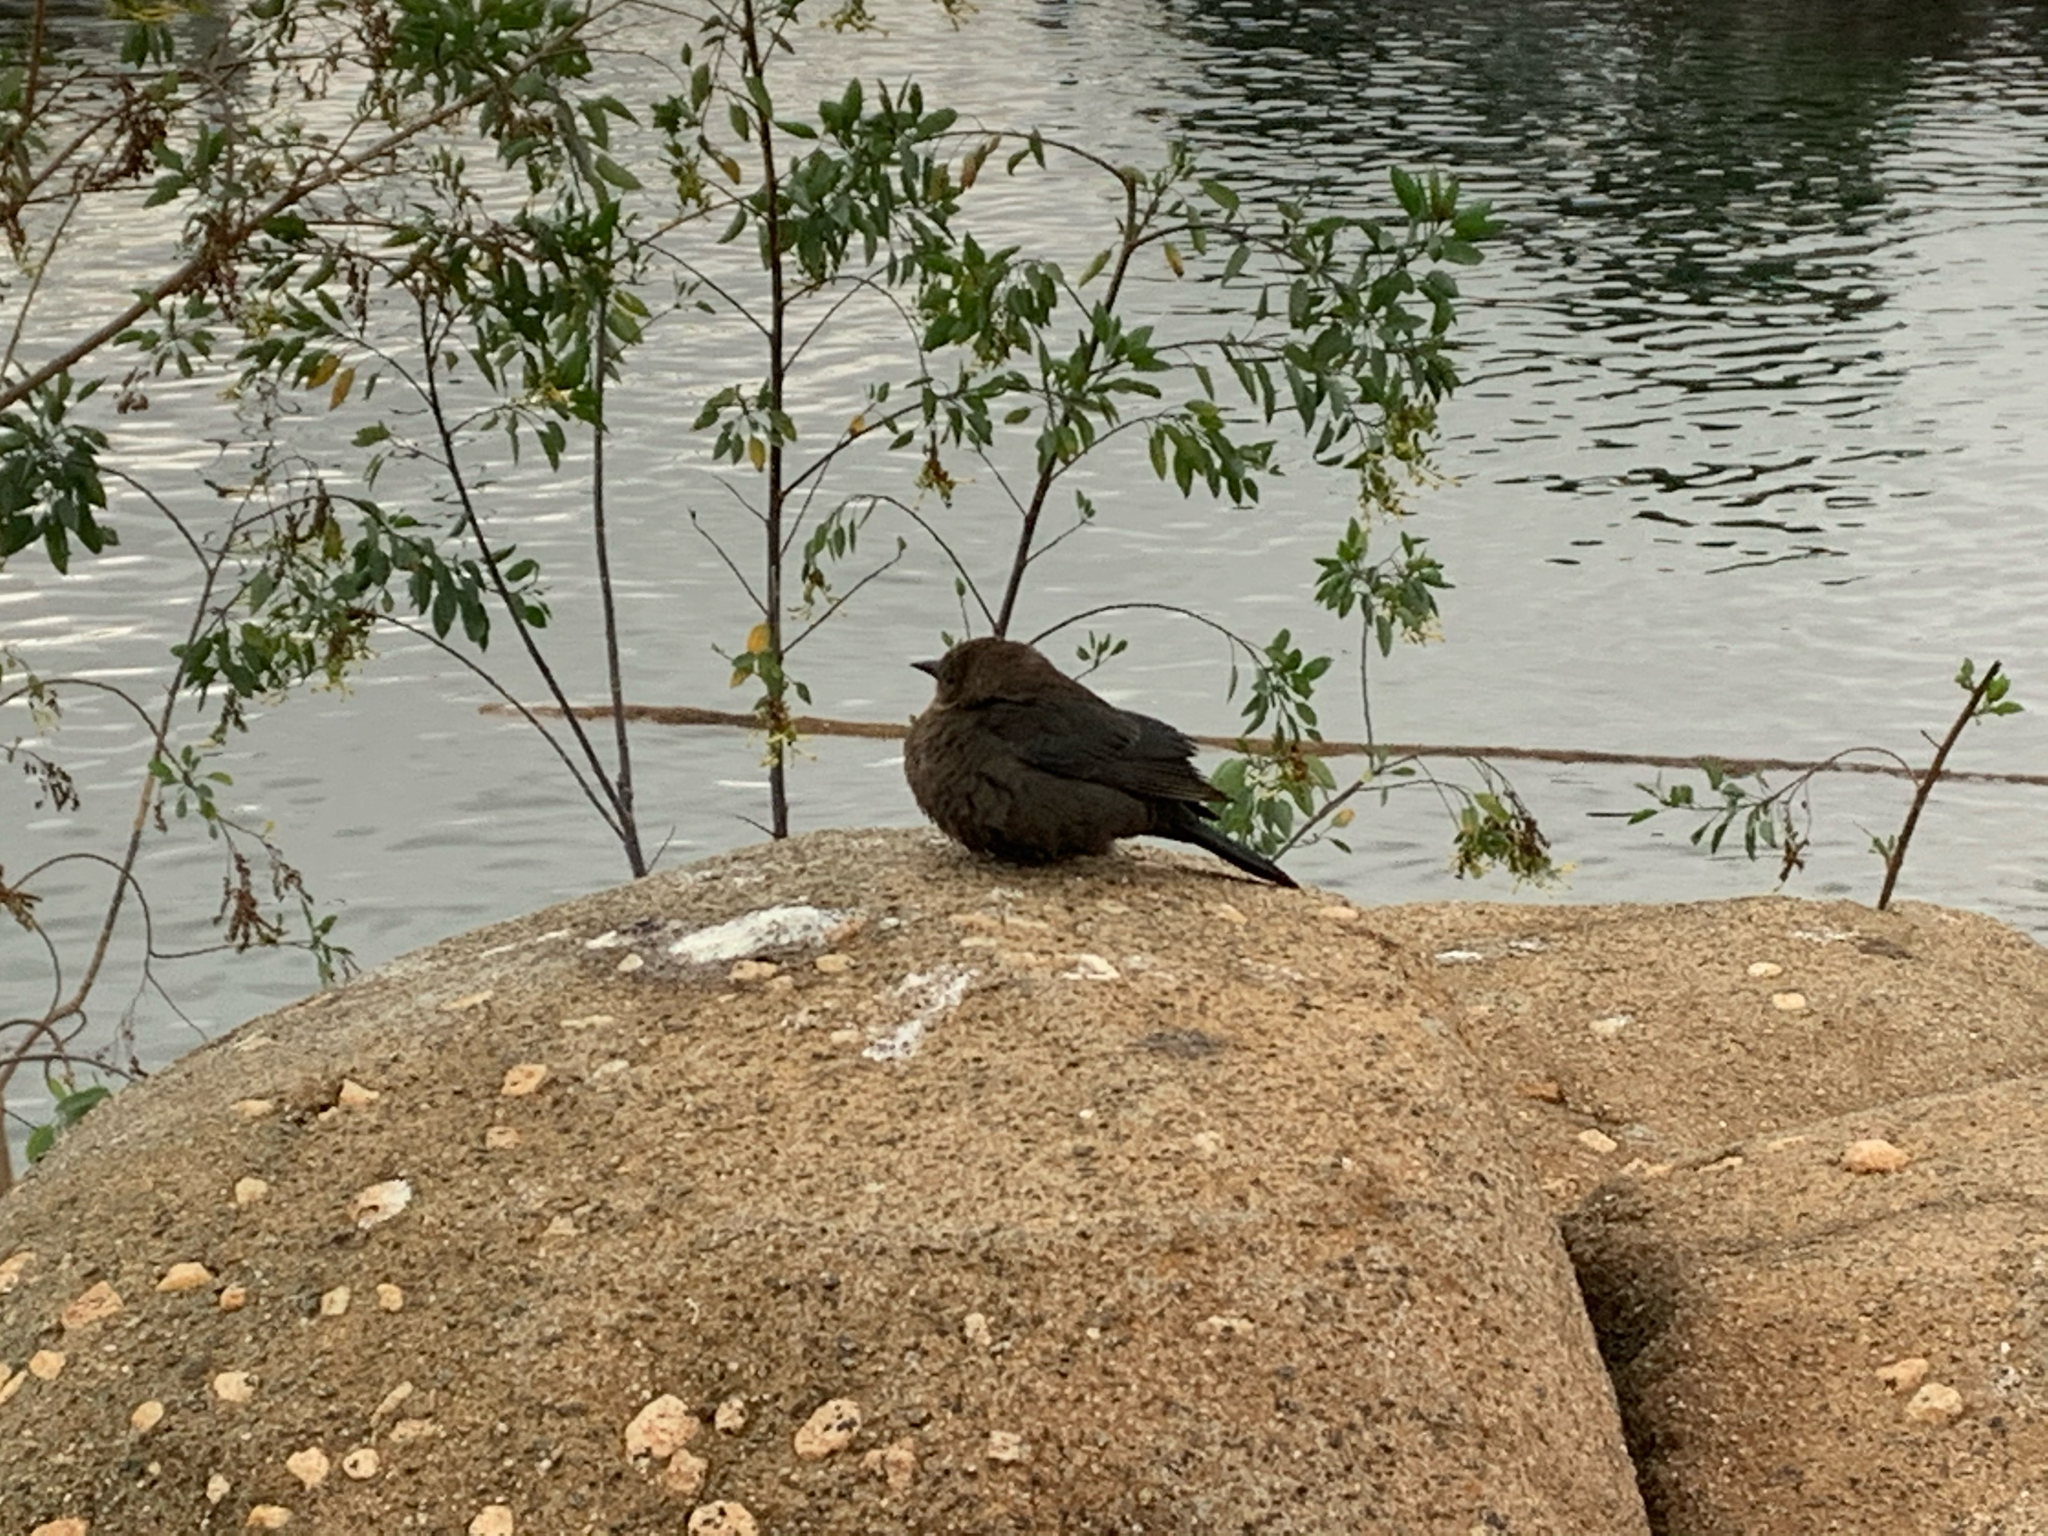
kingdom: Animalia
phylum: Chordata
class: Aves
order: Passeriformes
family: Icteridae
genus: Euphagus
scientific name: Euphagus cyanocephalus
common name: Brewer's blackbird
